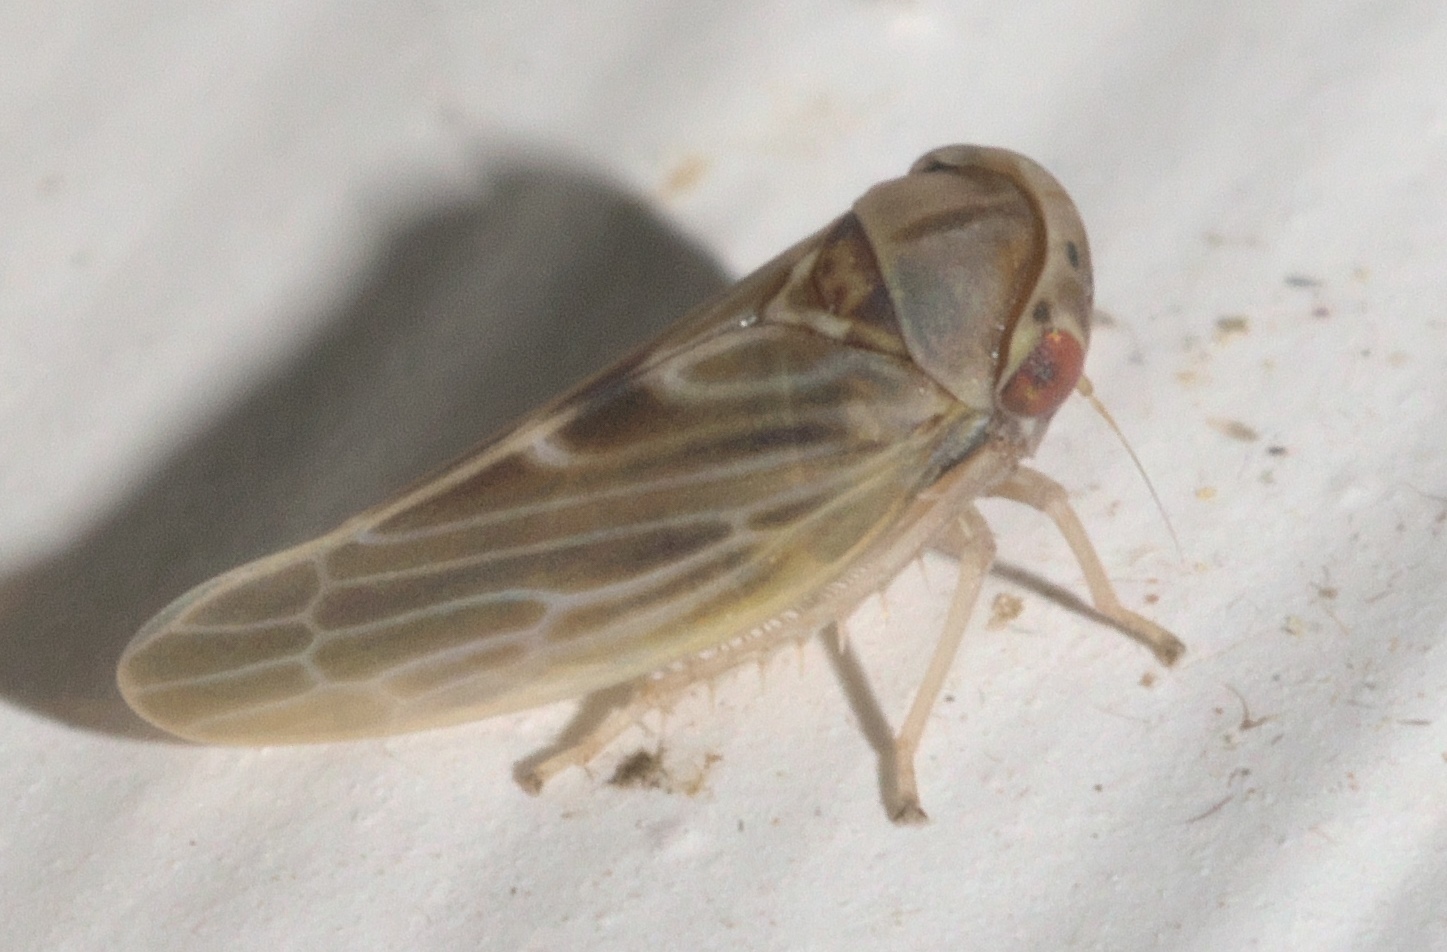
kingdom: Animalia
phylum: Arthropoda
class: Insecta
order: Hemiptera
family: Cicadellidae
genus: Agalliopsis
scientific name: Agalliopsis ancistra
